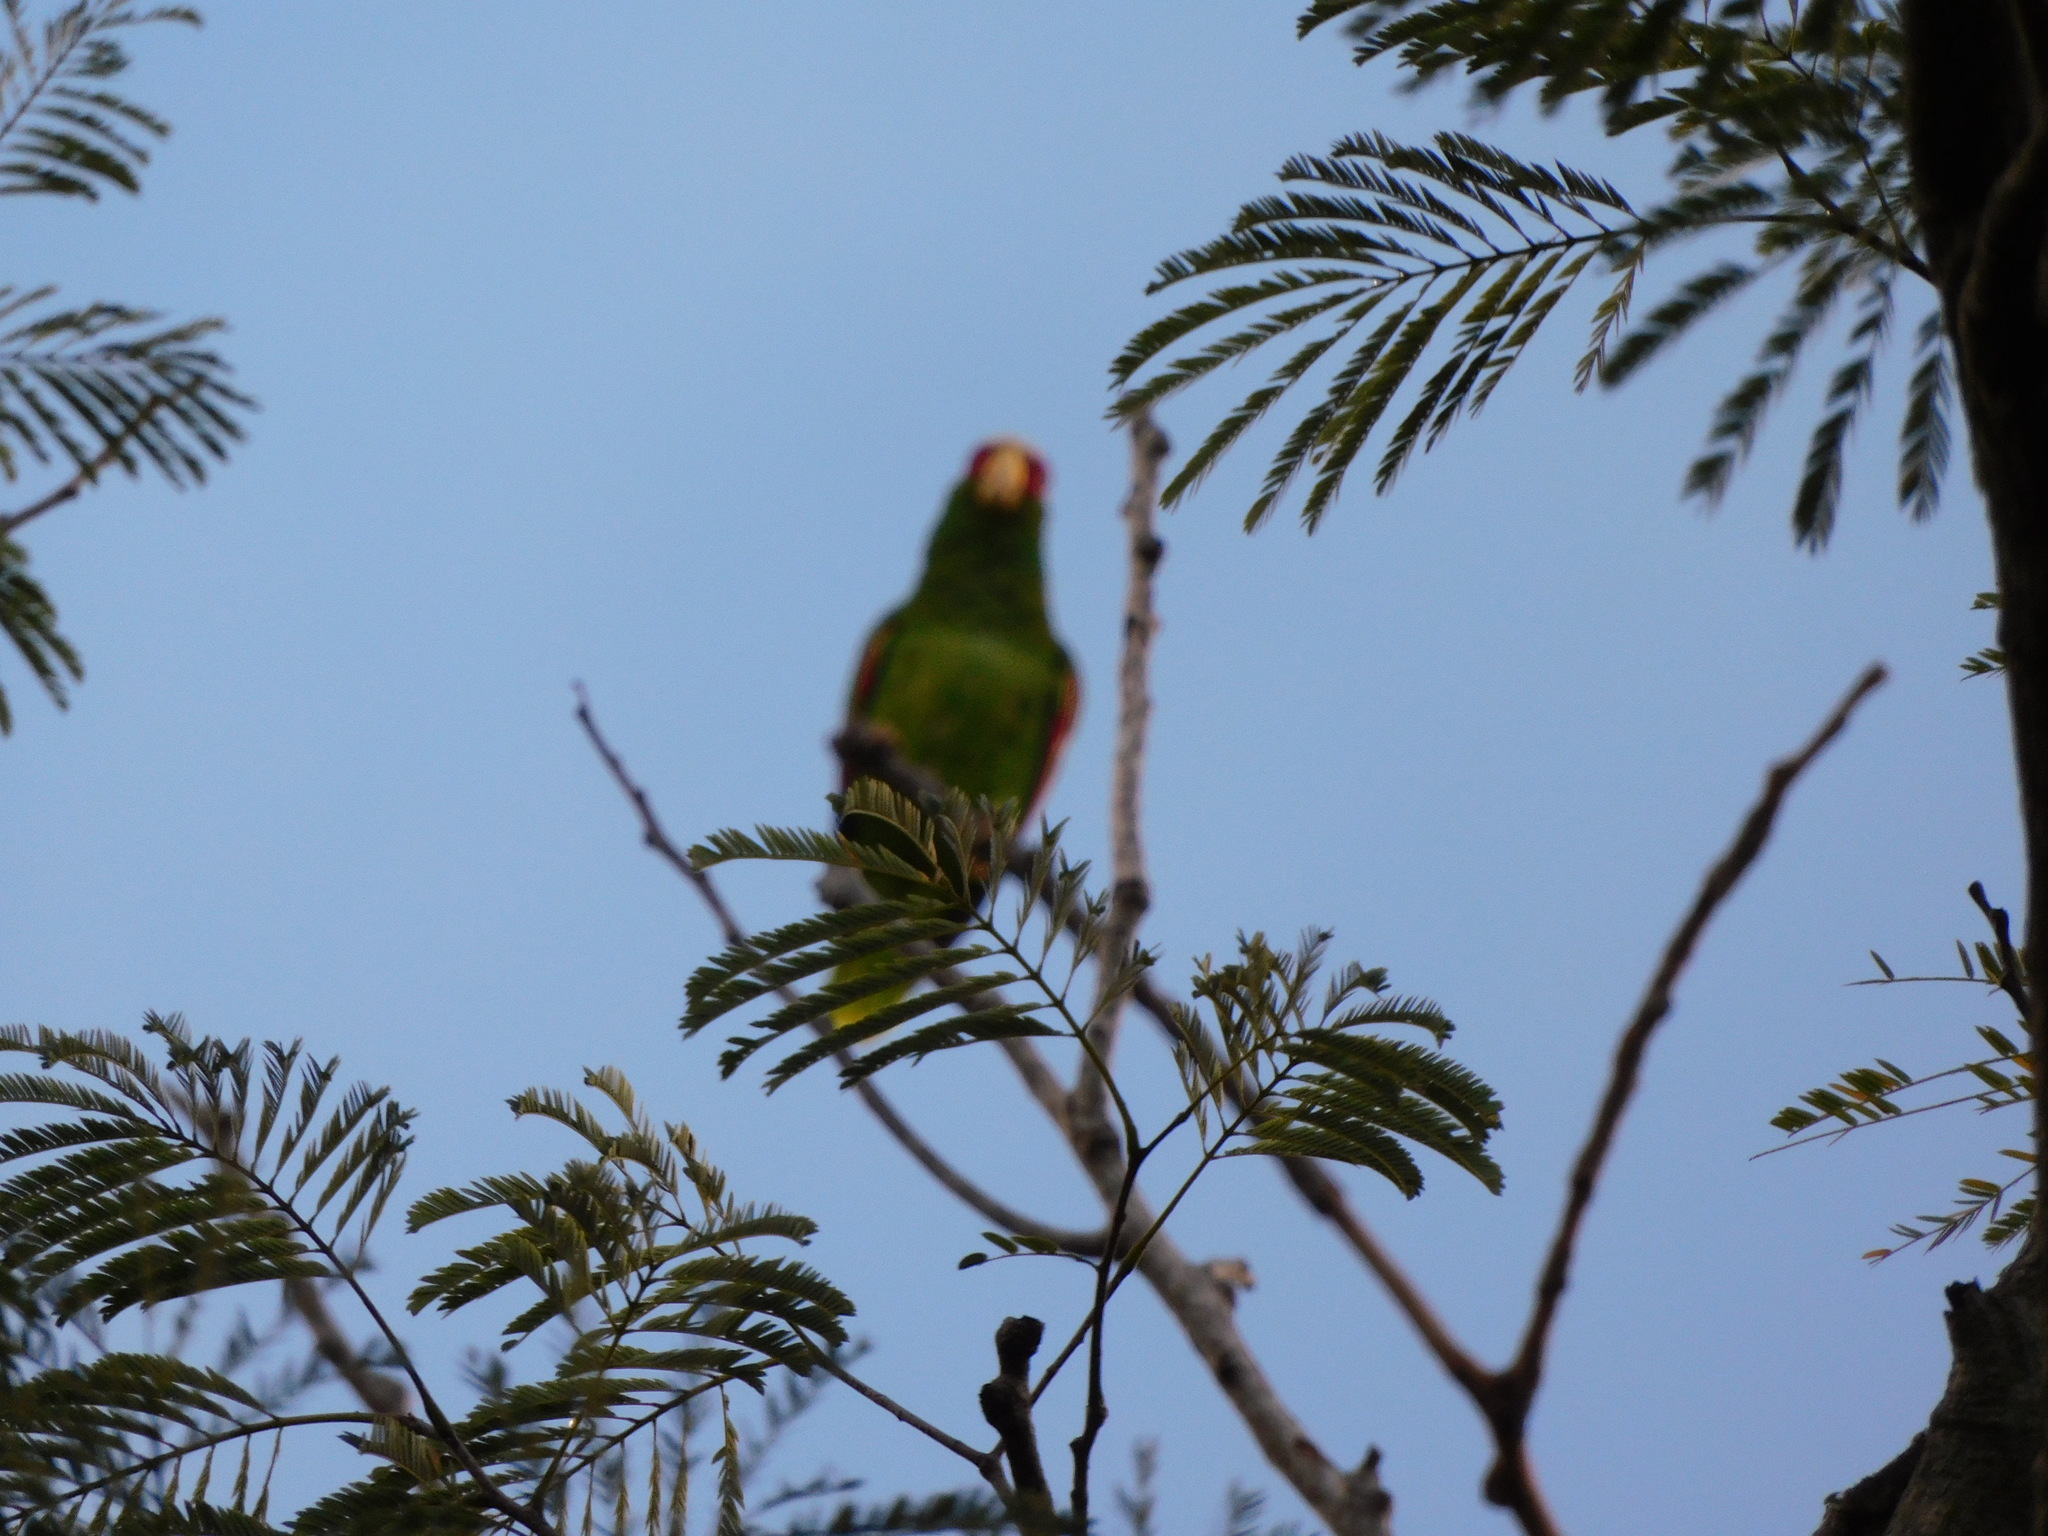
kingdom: Animalia
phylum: Chordata
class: Aves
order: Psittaciformes
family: Psittacidae
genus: Amazona
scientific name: Amazona albifrons
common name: White-fronted amazon
